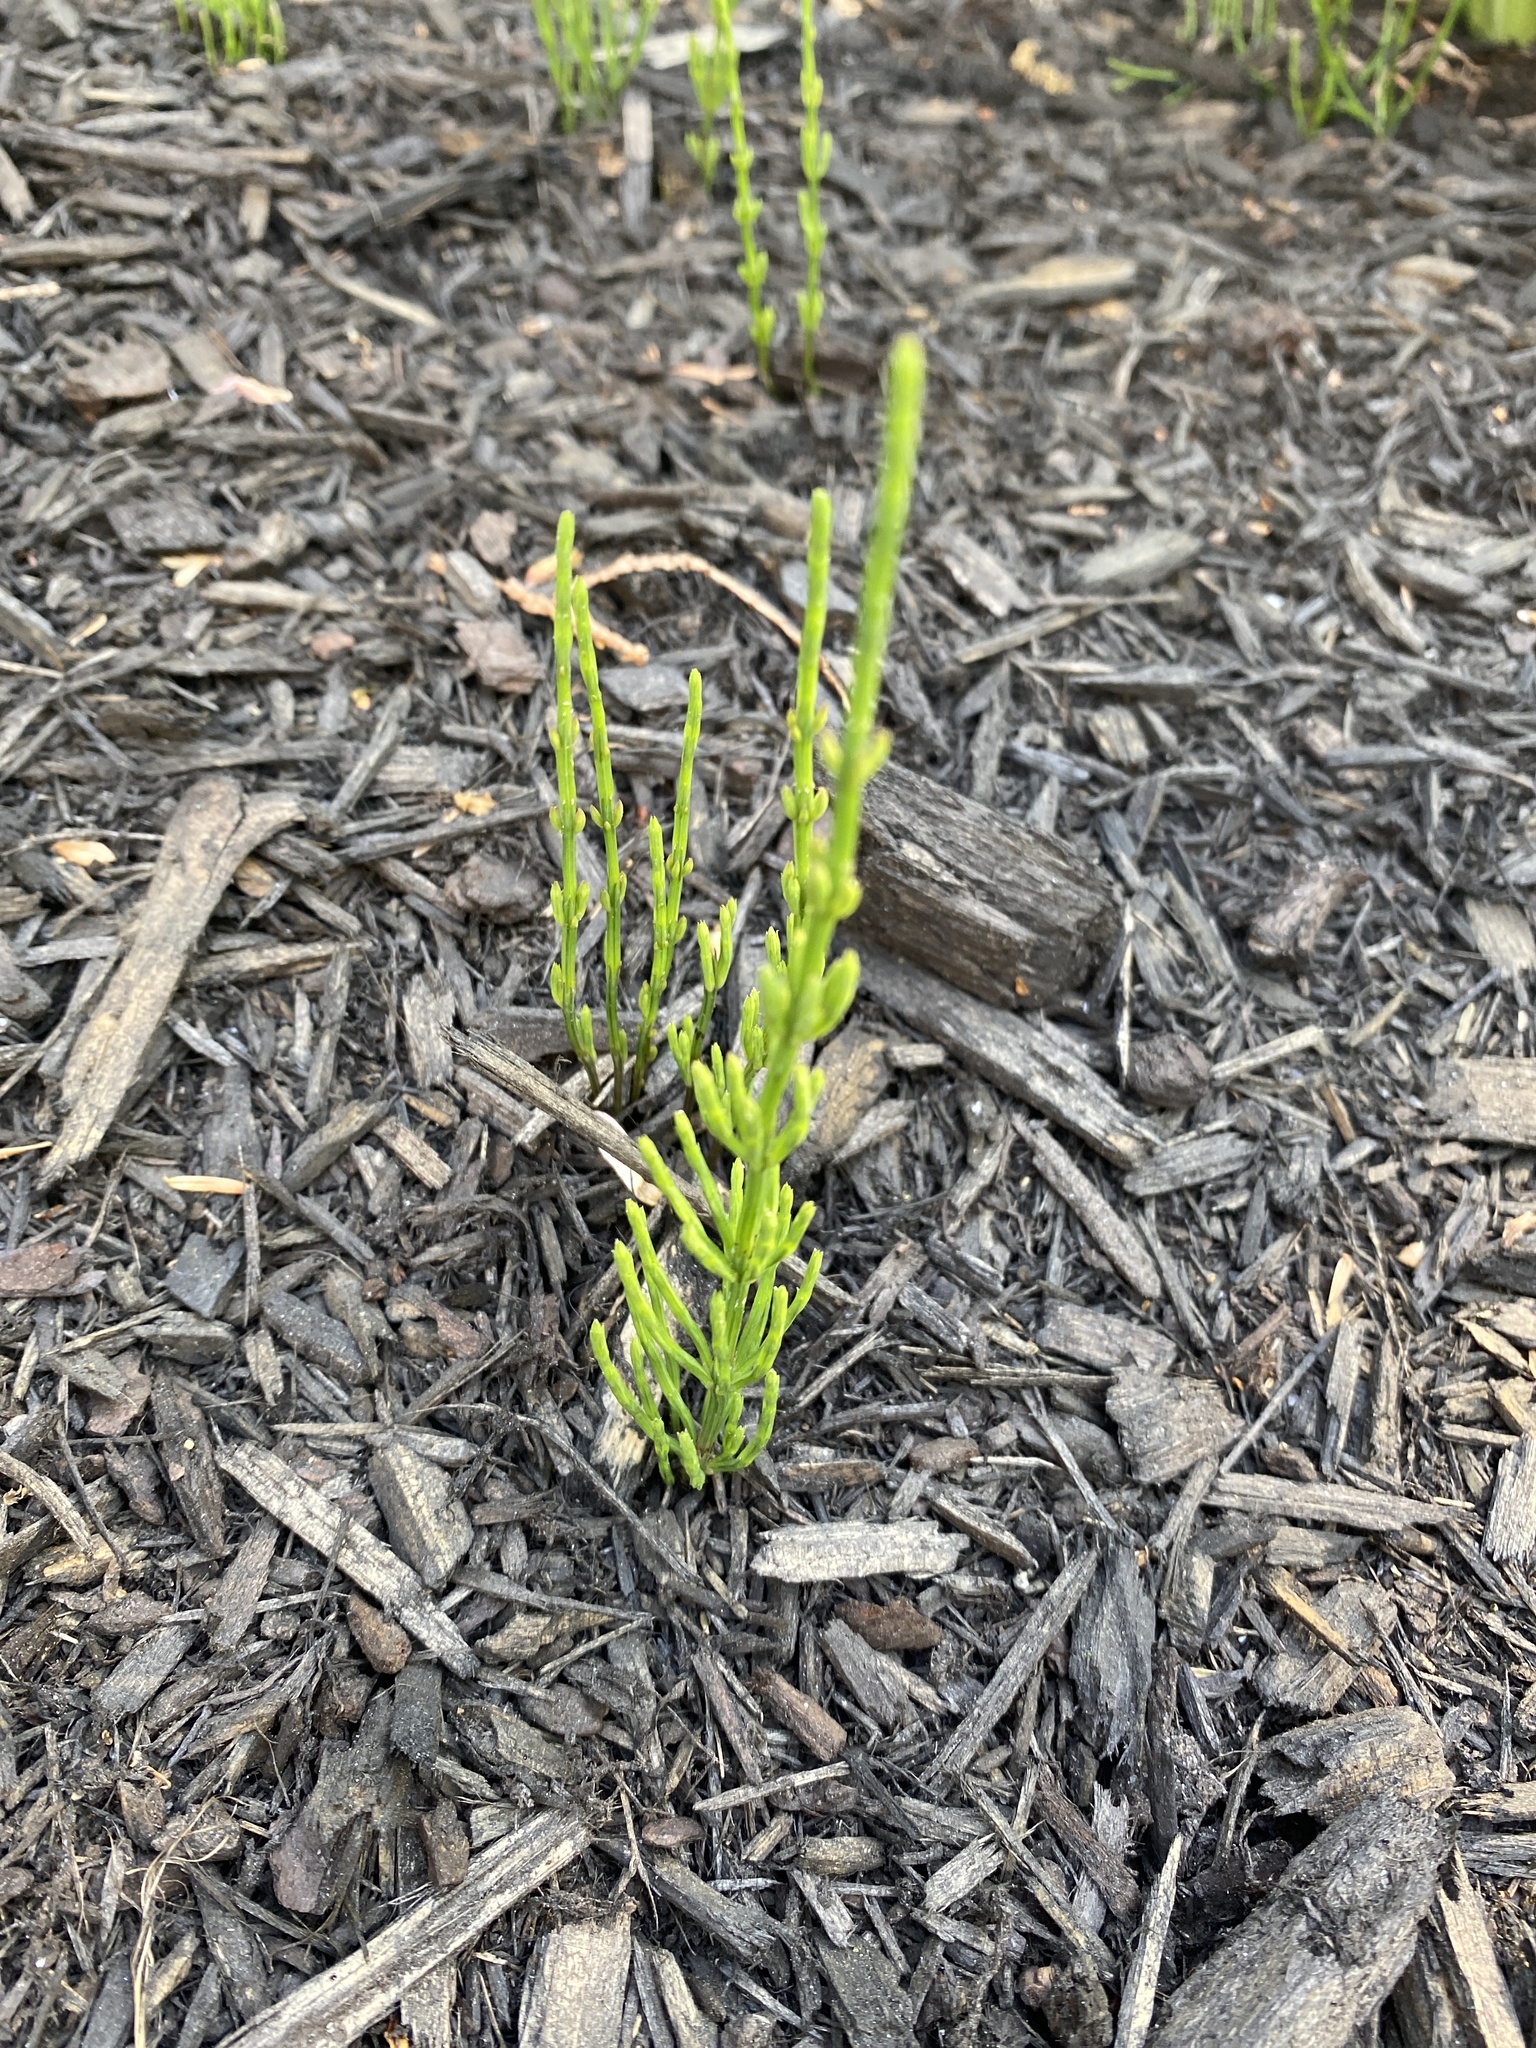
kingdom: Plantae
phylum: Tracheophyta
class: Polypodiopsida
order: Equisetales
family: Equisetaceae
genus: Equisetum
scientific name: Equisetum arvense
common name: Field horsetail
